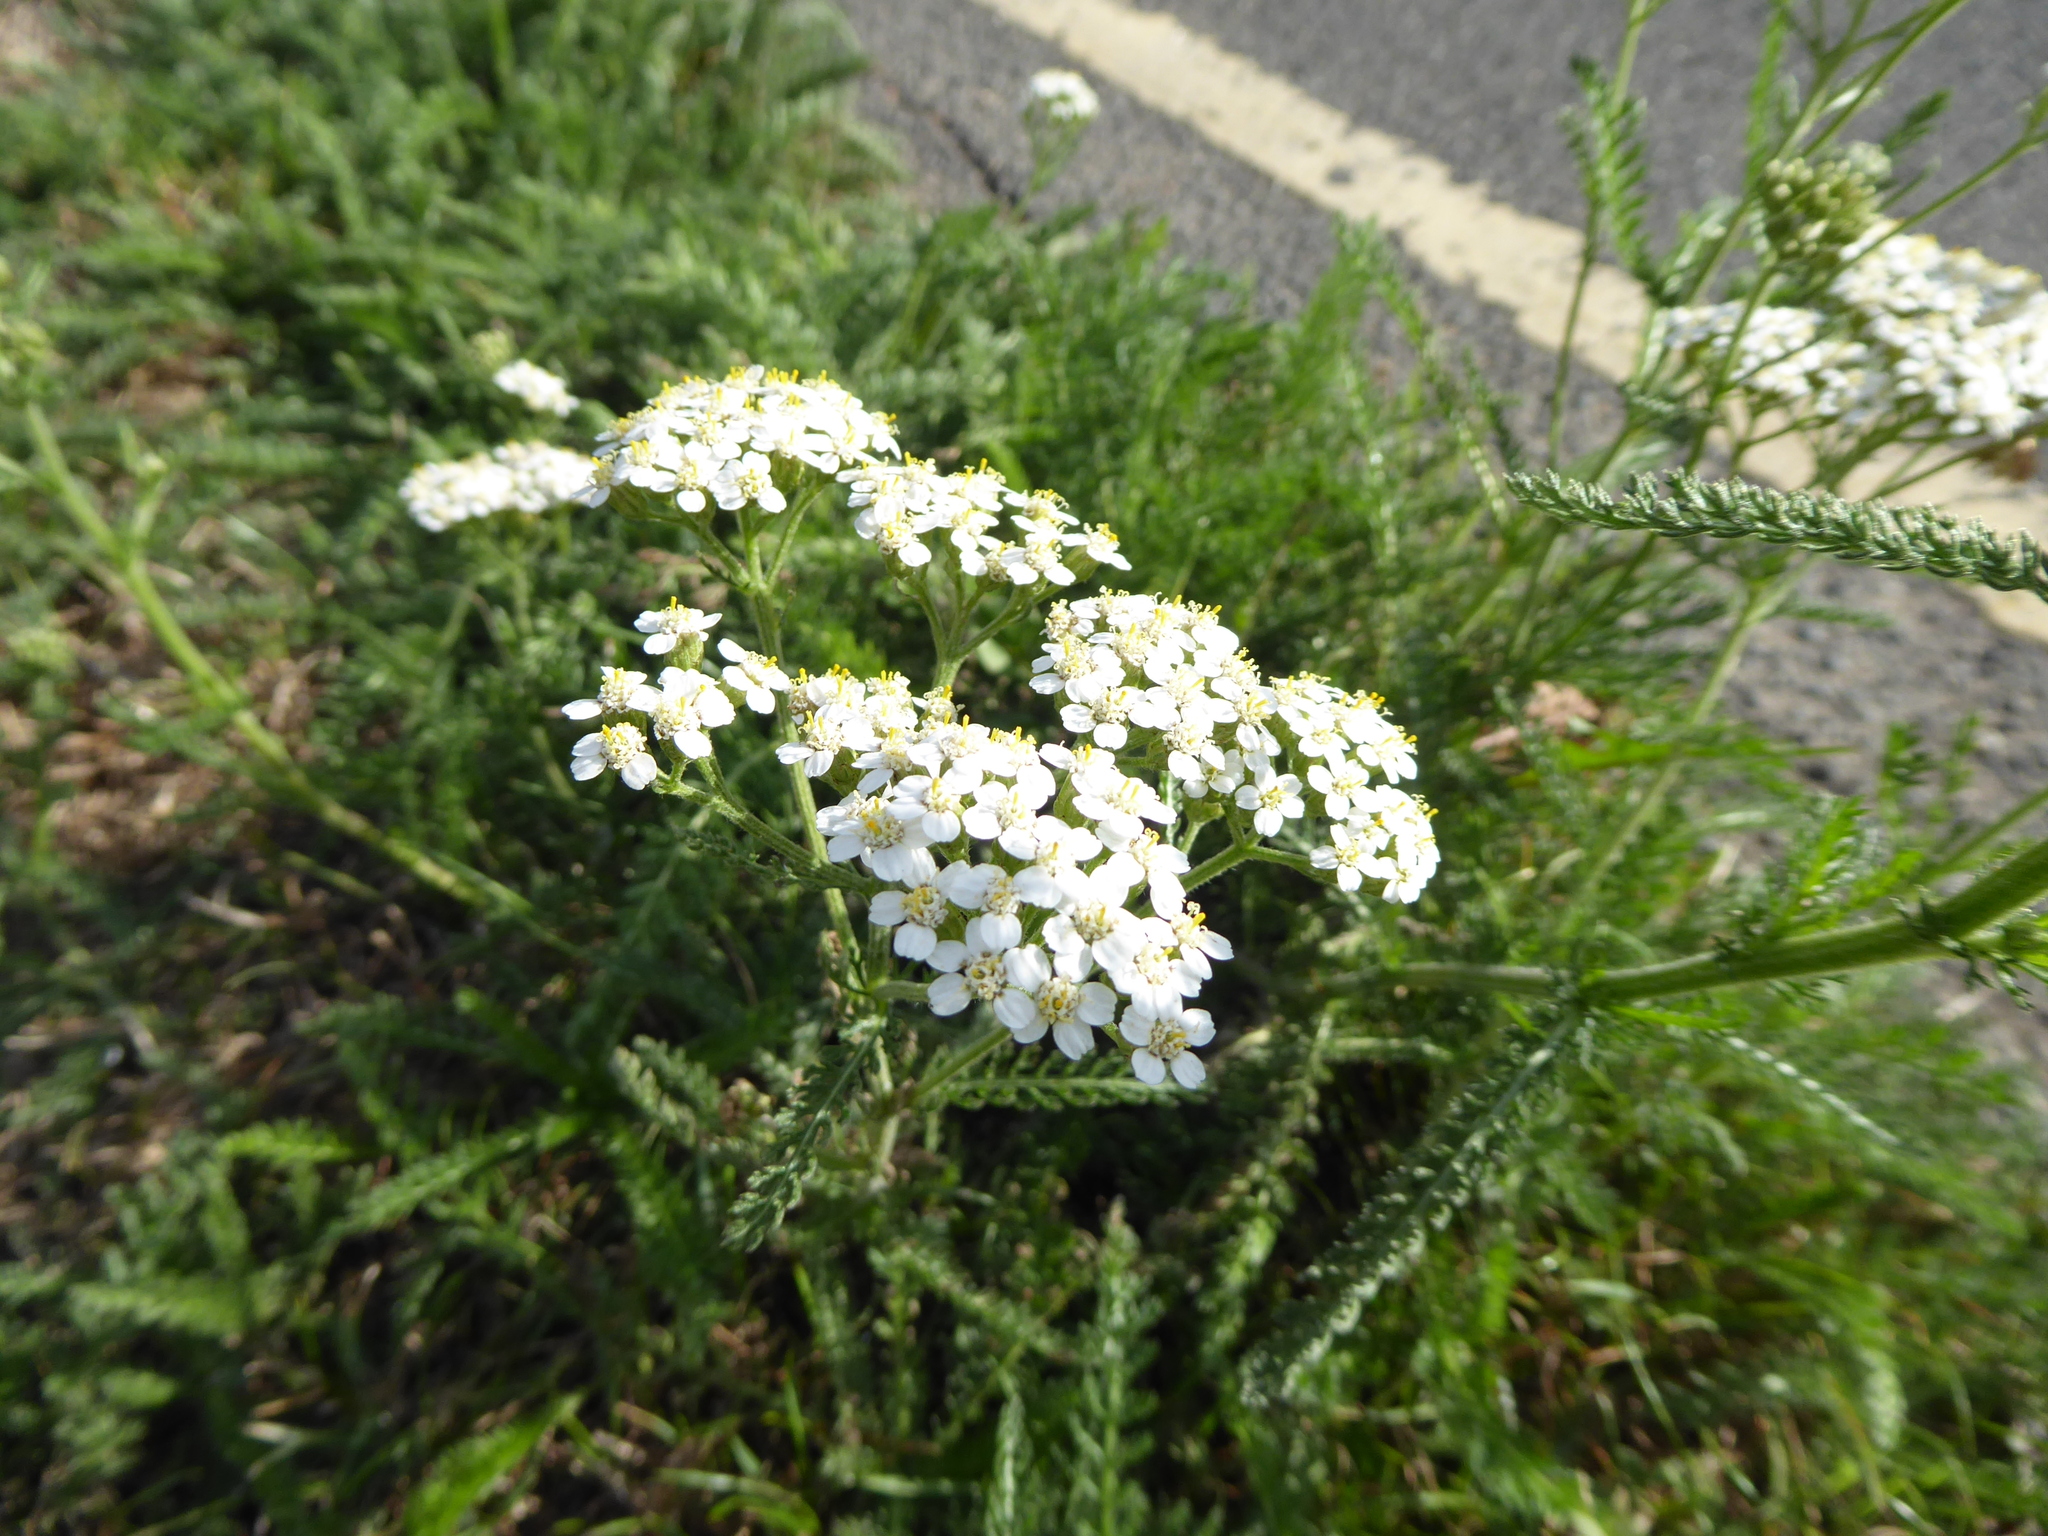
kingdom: Plantae
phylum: Tracheophyta
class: Magnoliopsida
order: Asterales
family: Asteraceae
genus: Achillea
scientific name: Achillea millefolium
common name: Yarrow
